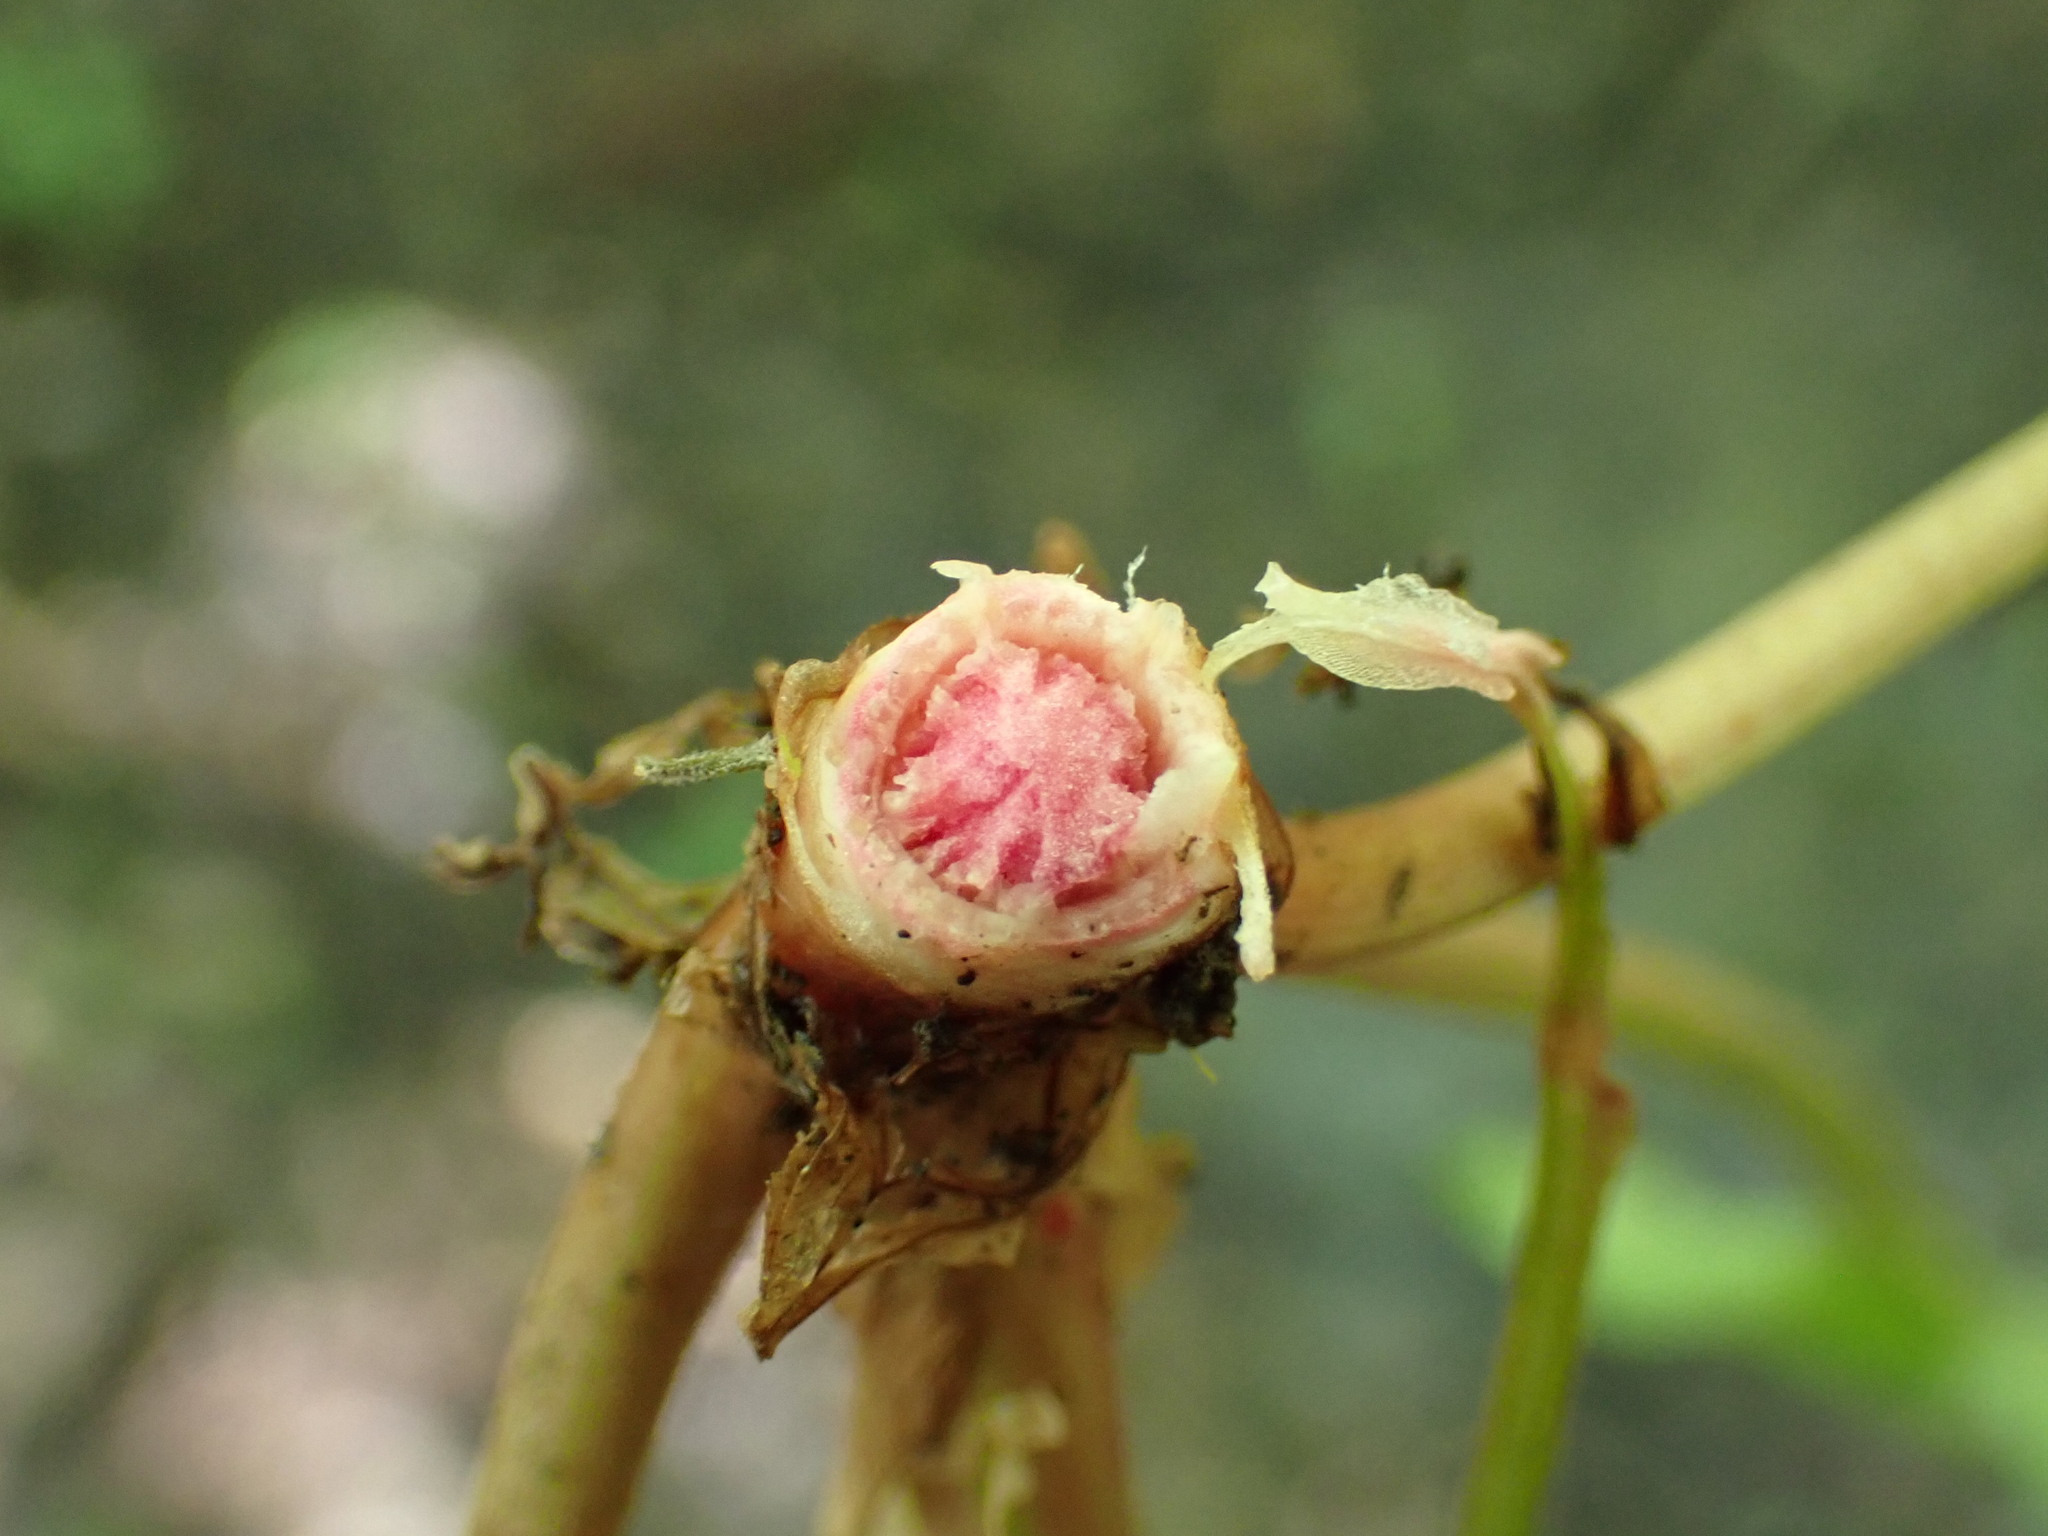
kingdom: Plantae
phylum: Tracheophyta
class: Magnoliopsida
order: Caryophyllales
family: Polygonaceae
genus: Rumex
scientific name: Rumex sanguineus
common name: Wood dock
